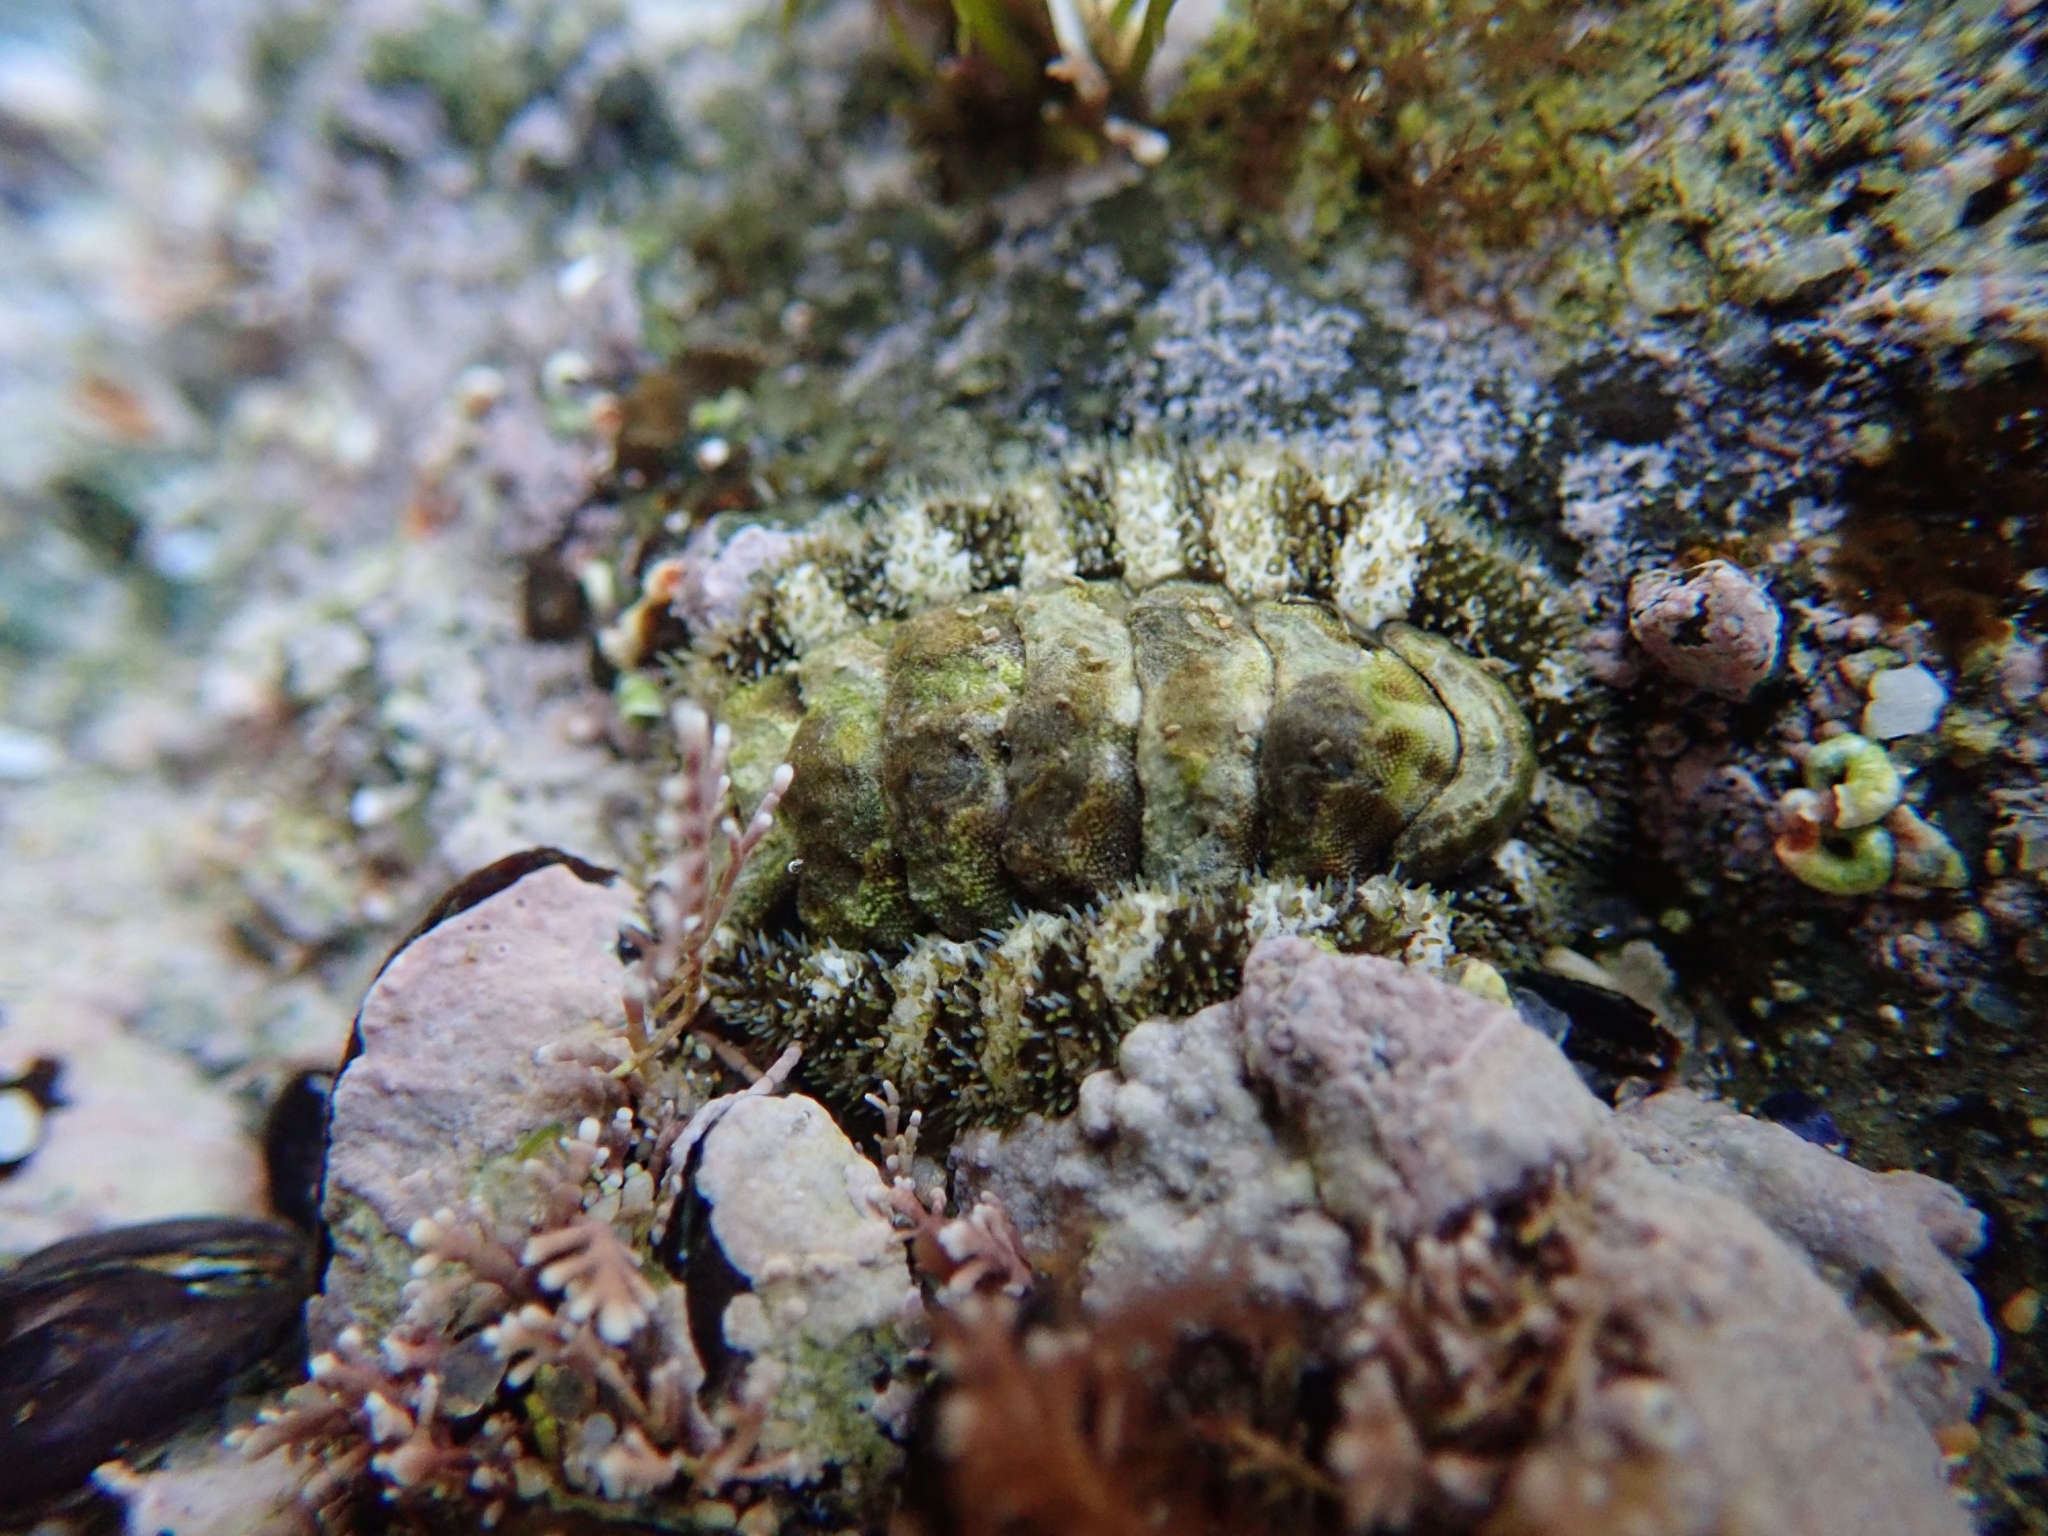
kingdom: Animalia
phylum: Mollusca
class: Polyplacophora
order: Chitonida
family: Tonicellidae
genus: Nuttallina
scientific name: Nuttallina californica
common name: California nuttall chiton
